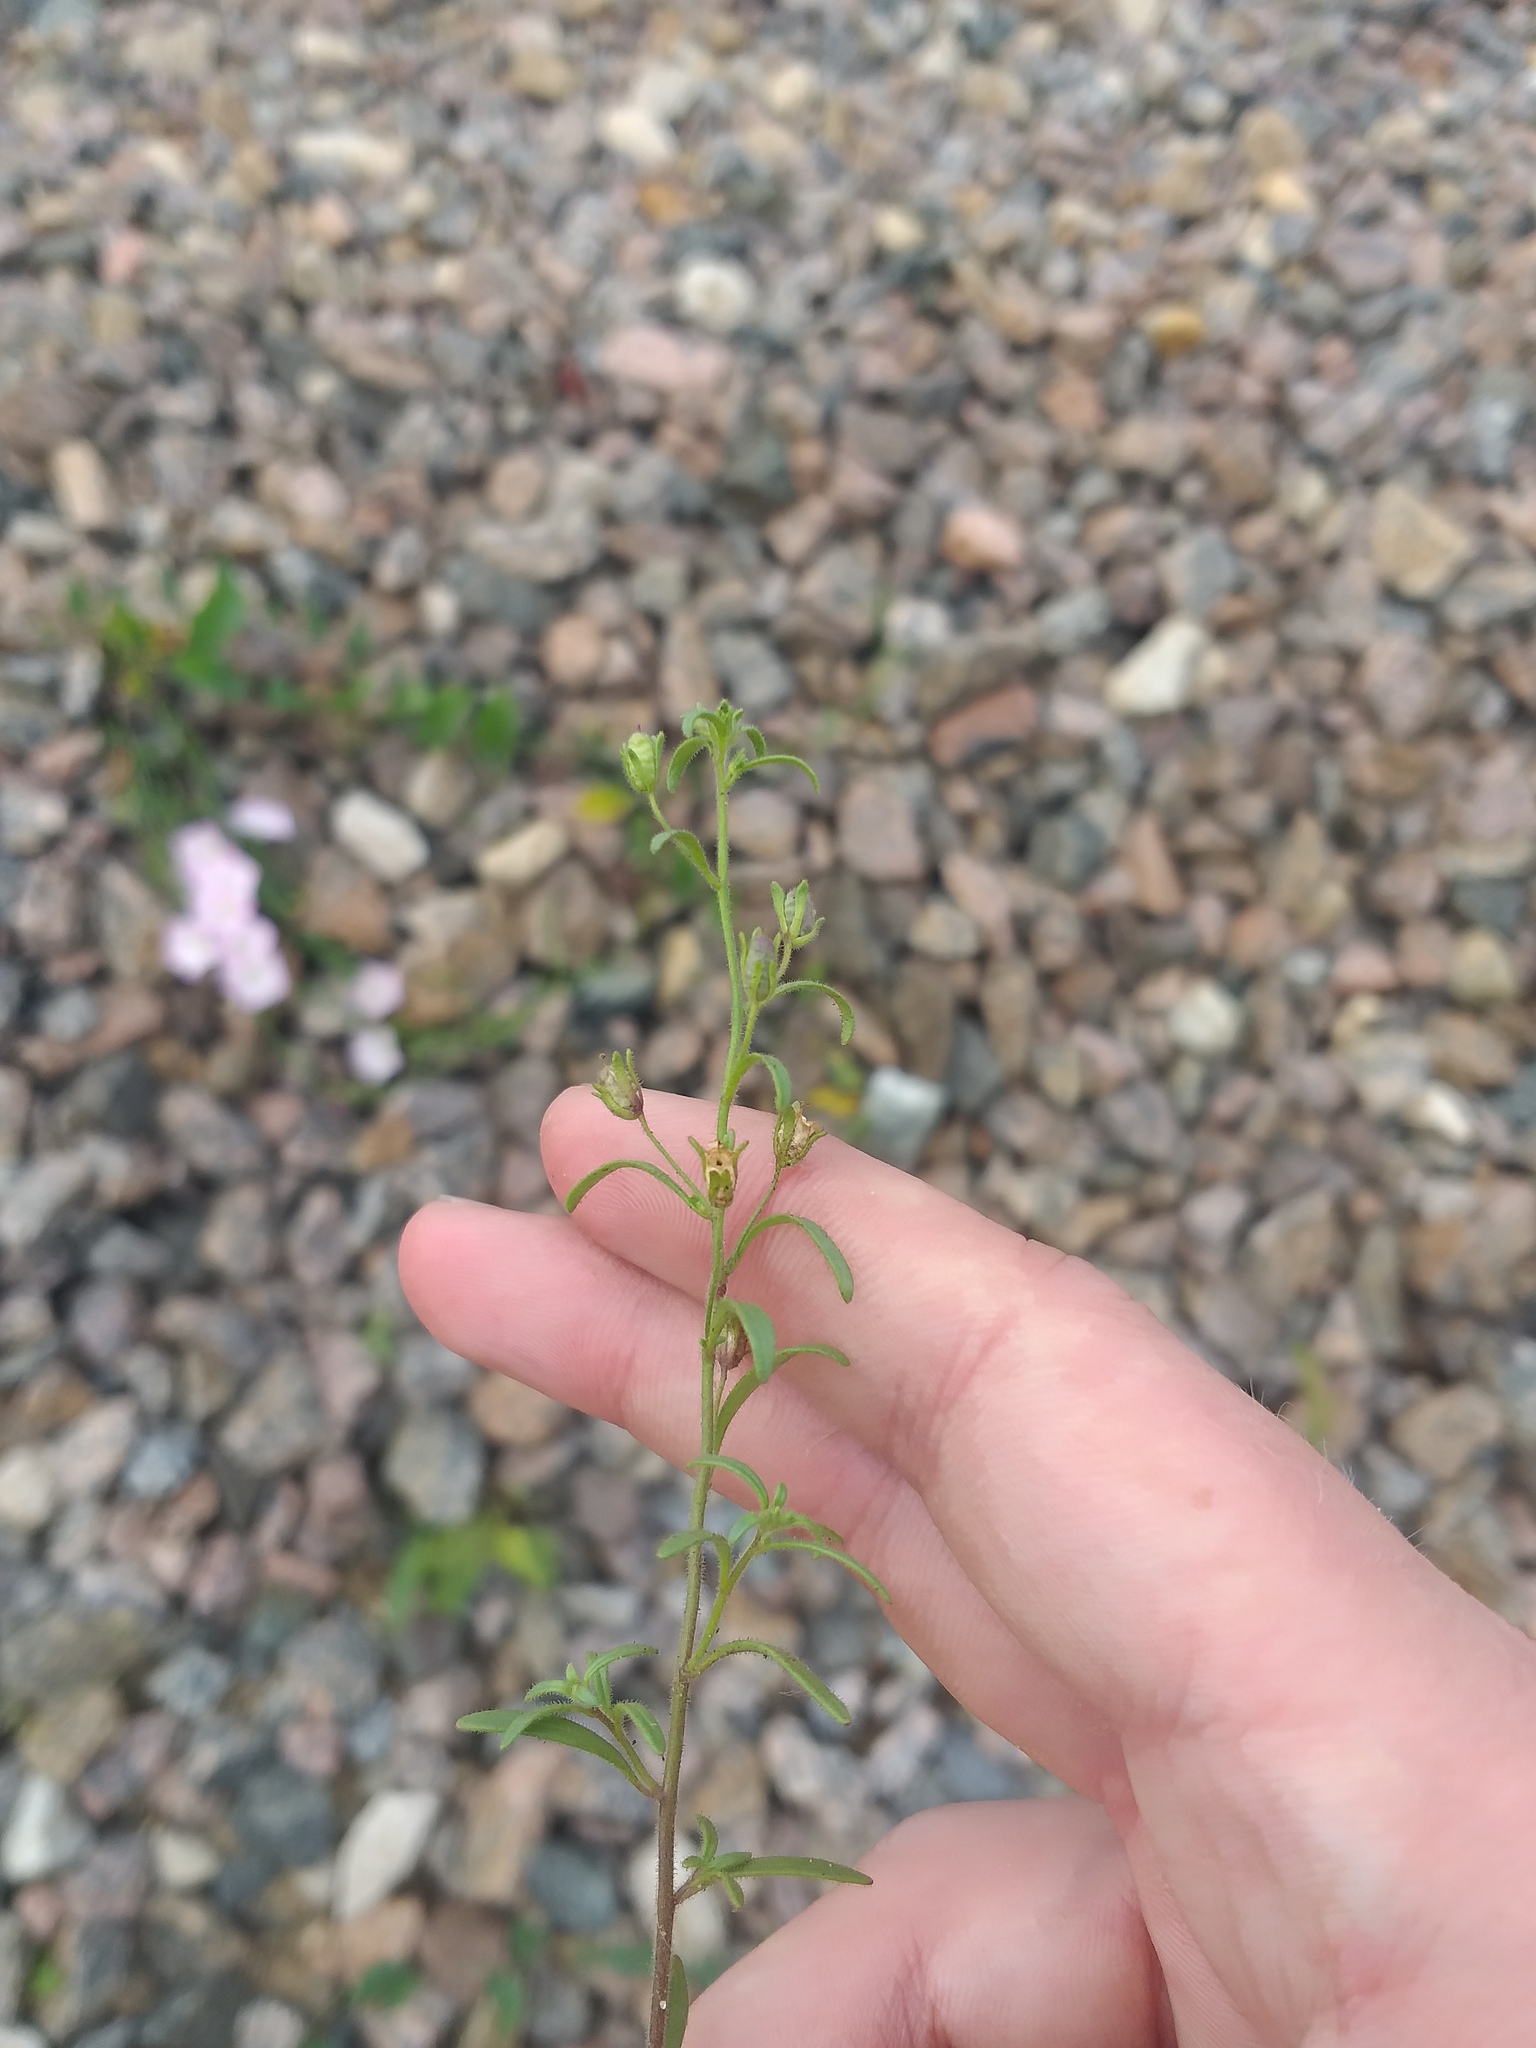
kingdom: Plantae
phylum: Tracheophyta
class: Magnoliopsida
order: Lamiales
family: Plantaginaceae
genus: Chaenorhinum
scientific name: Chaenorhinum minus
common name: Dwarf snapdragon
